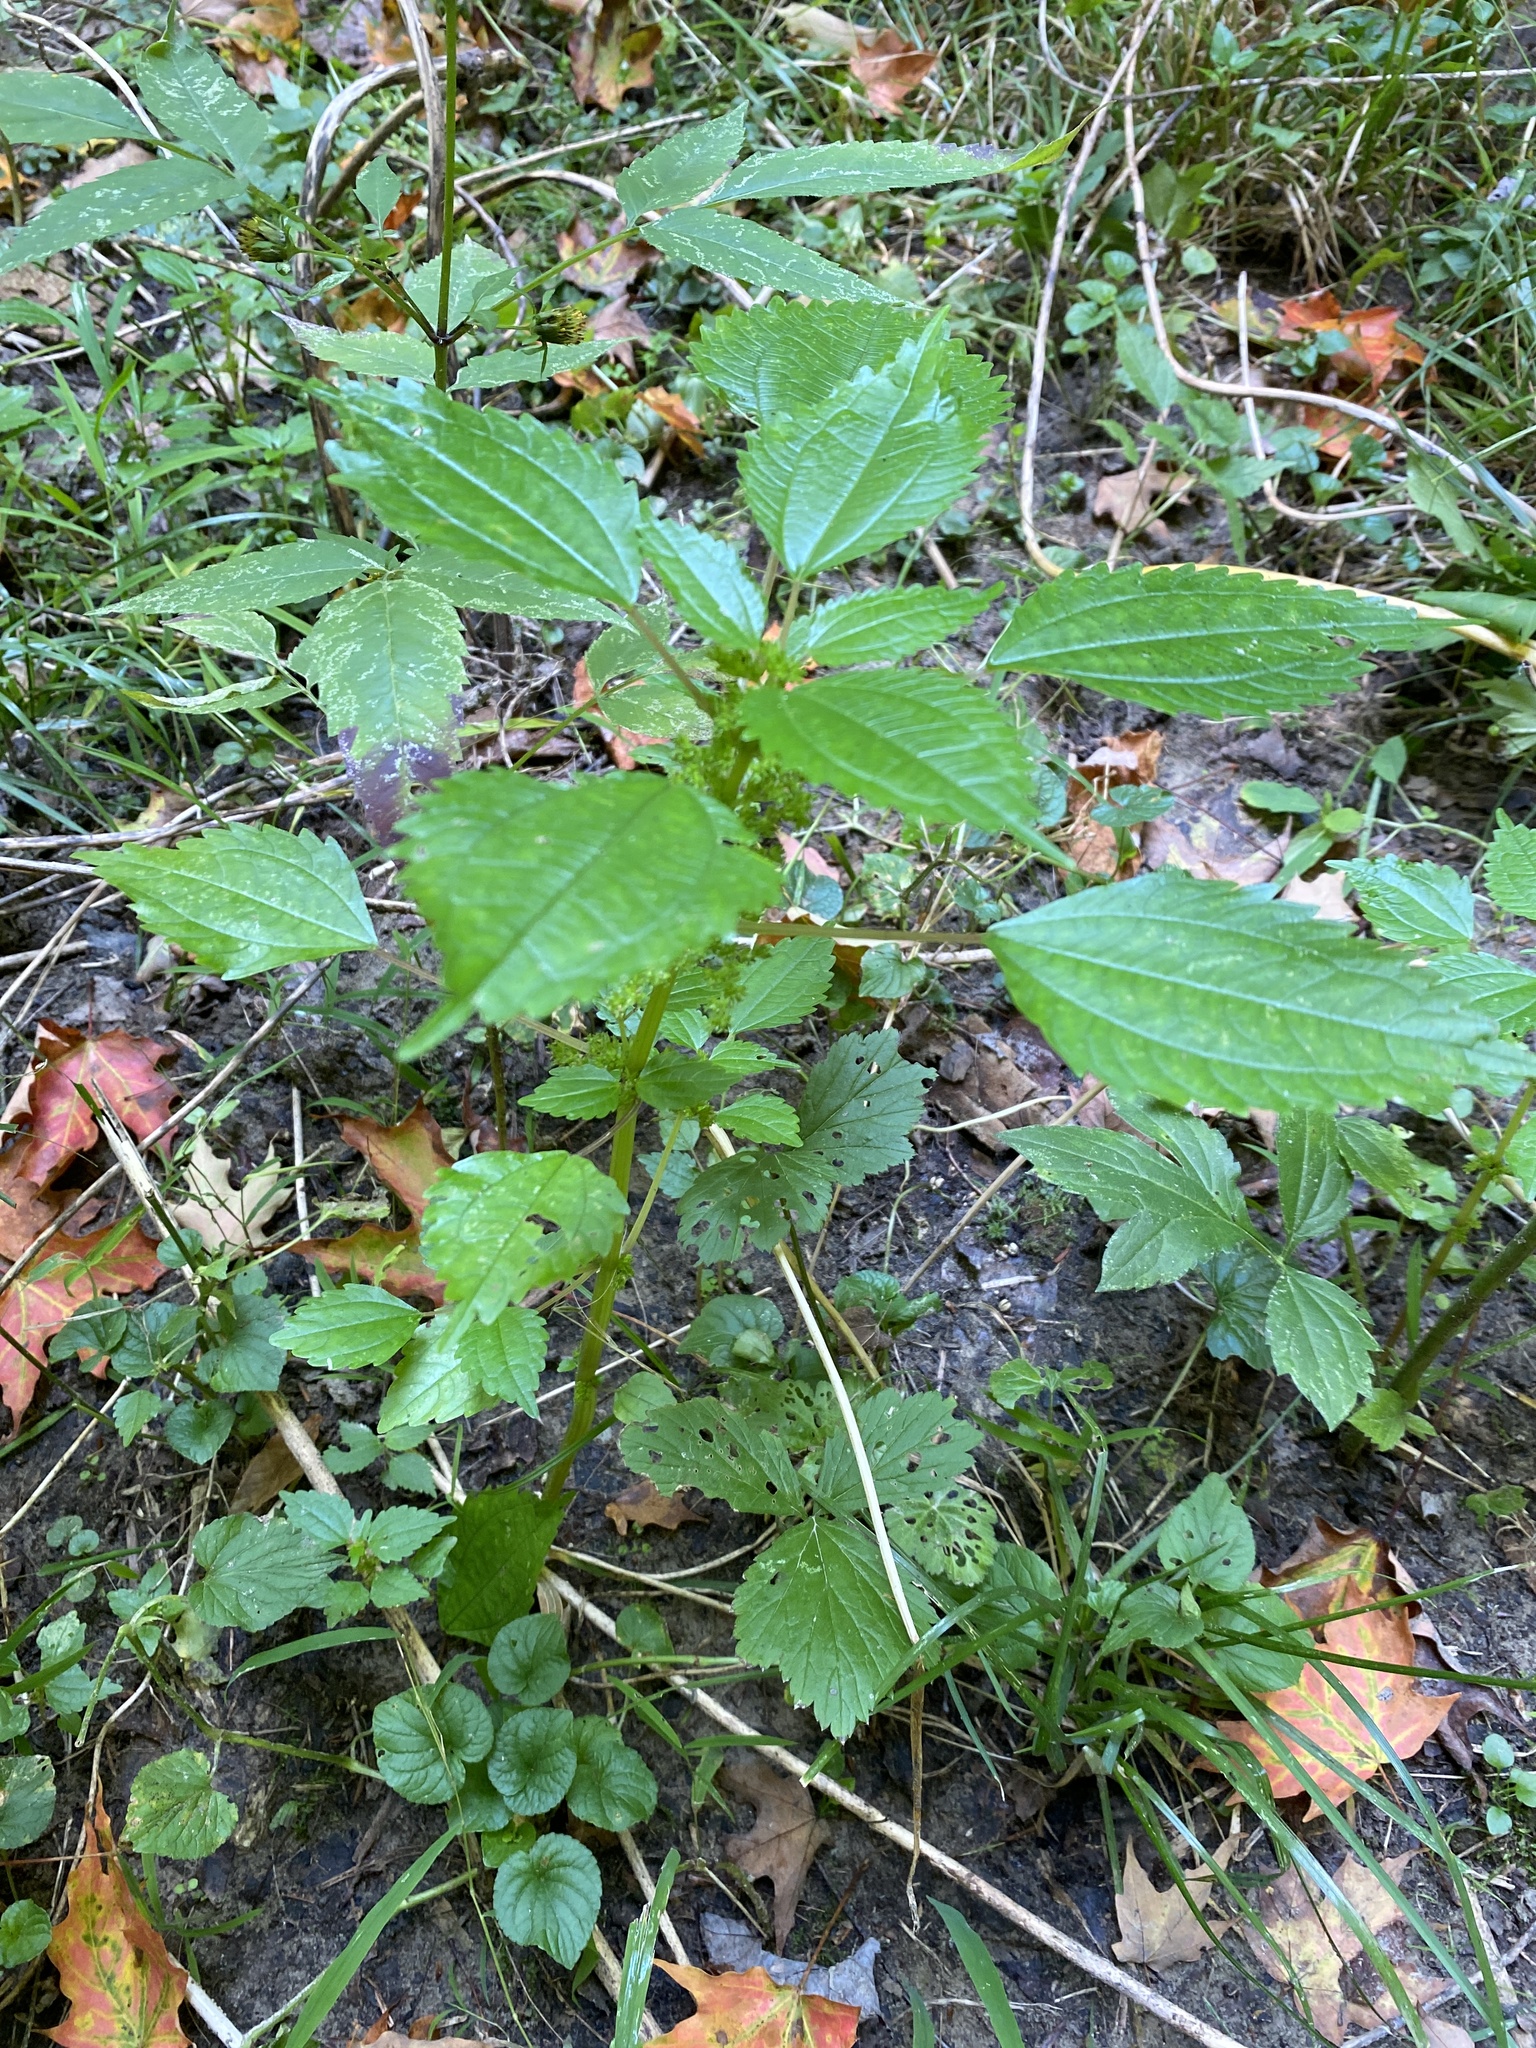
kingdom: Plantae
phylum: Tracheophyta
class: Magnoliopsida
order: Rosales
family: Urticaceae
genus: Pilea
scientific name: Pilea pumila
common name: Clearweed
